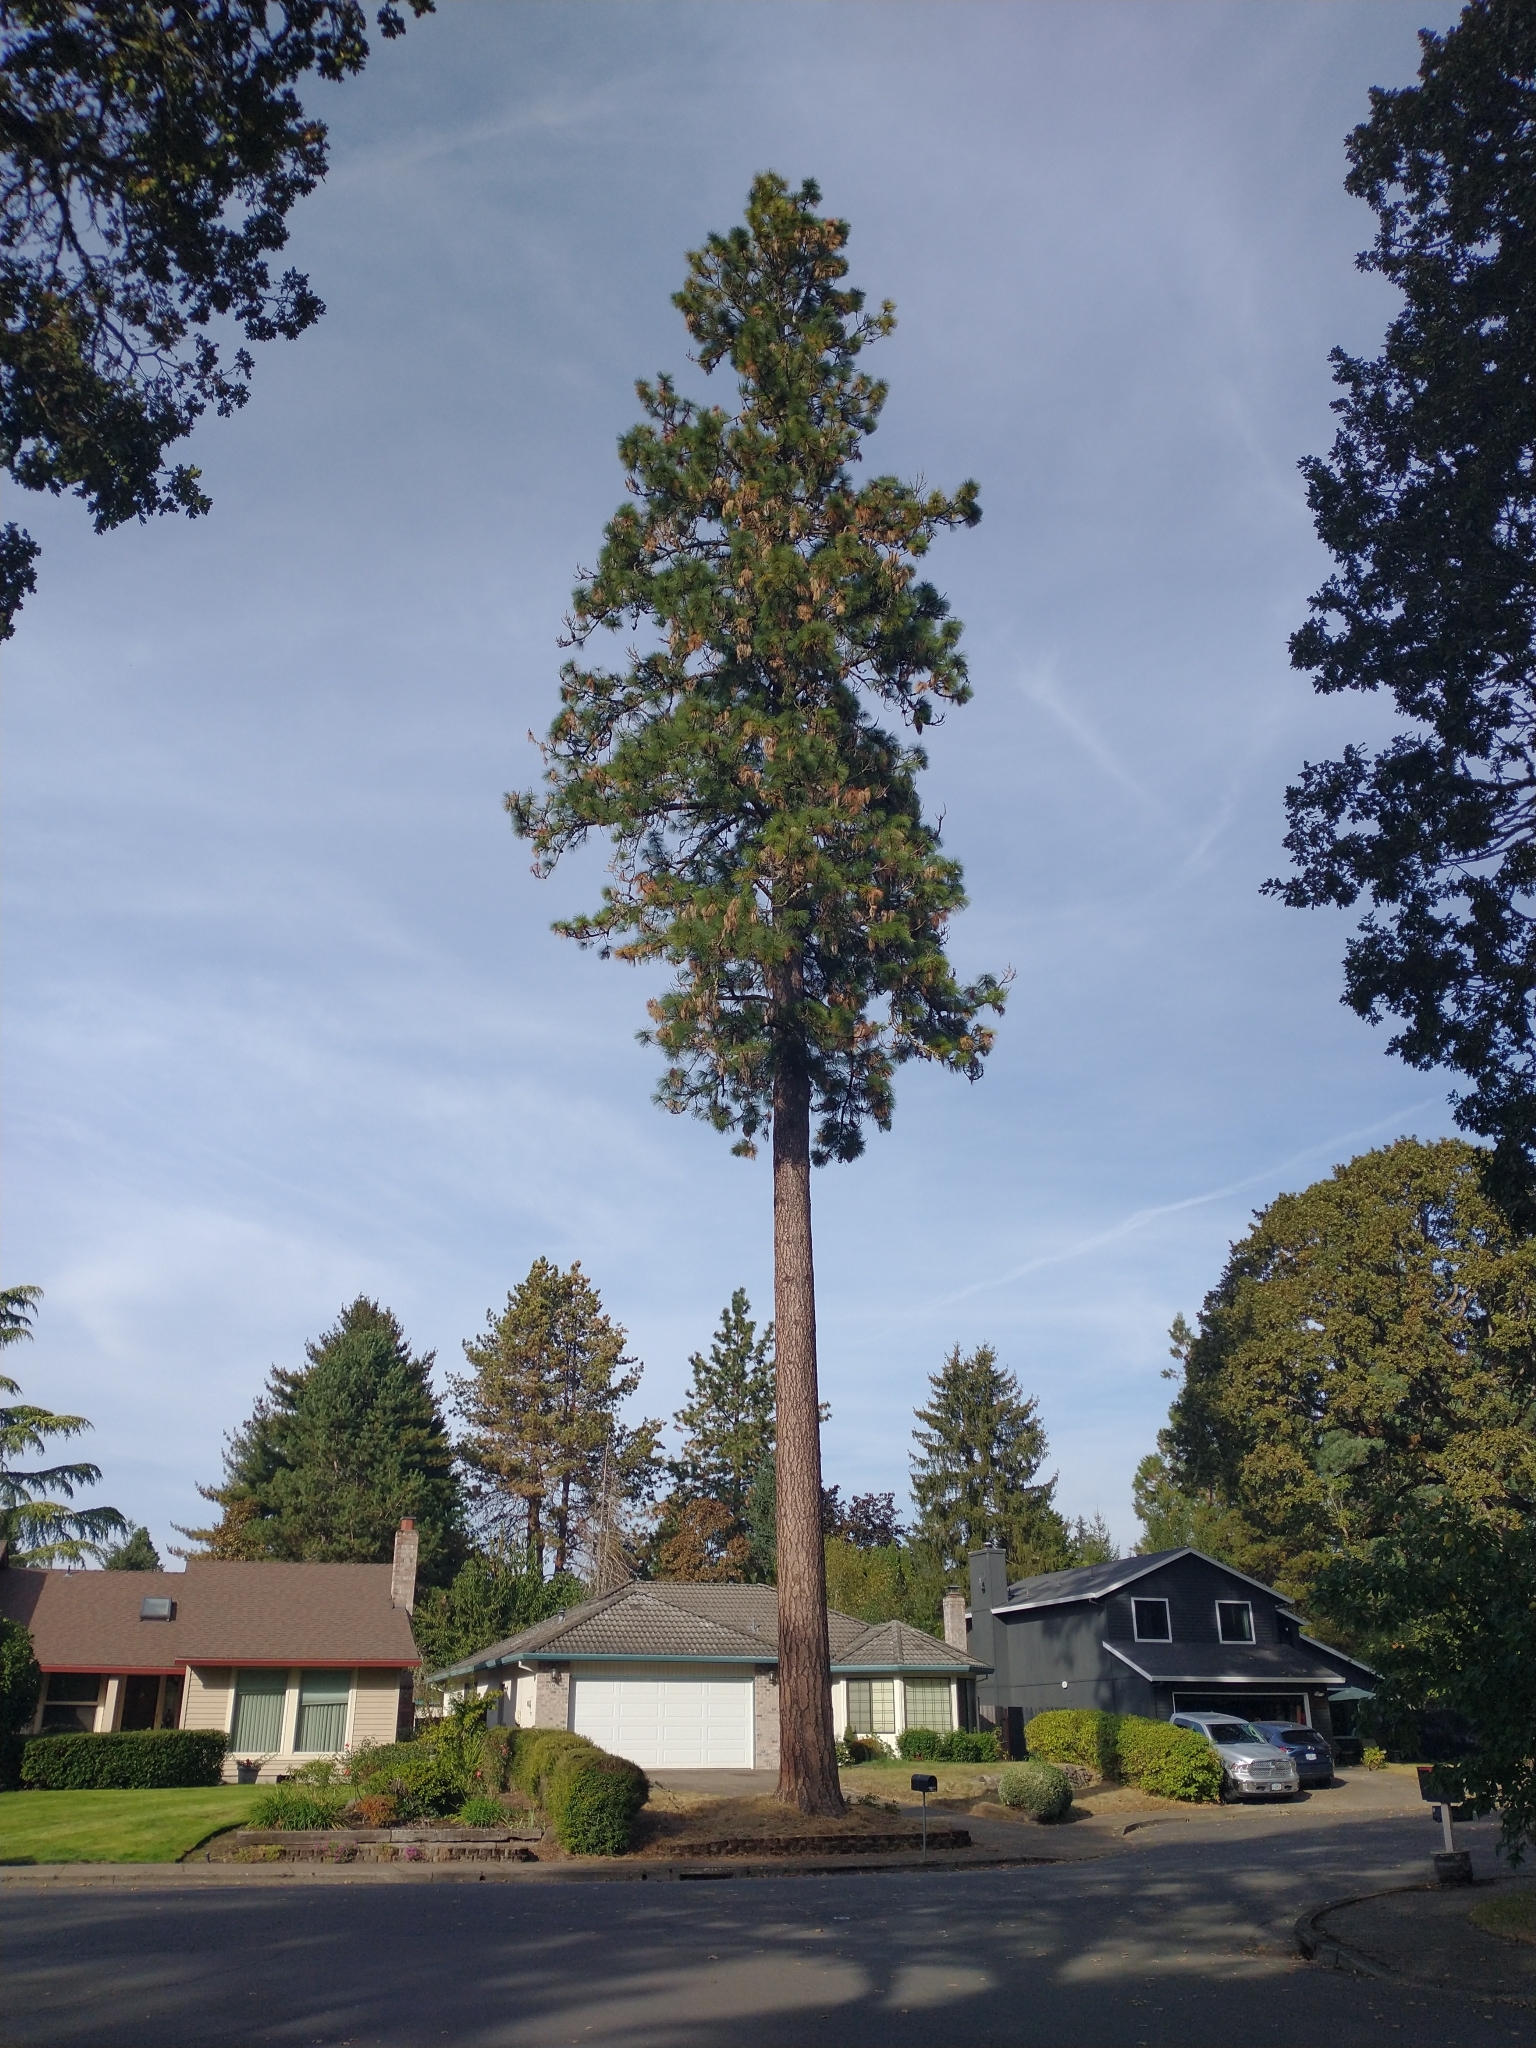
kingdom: Plantae
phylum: Tracheophyta
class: Pinopsida
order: Pinales
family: Pinaceae
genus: Pinus
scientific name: Pinus ponderosa
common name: Western yellow-pine
